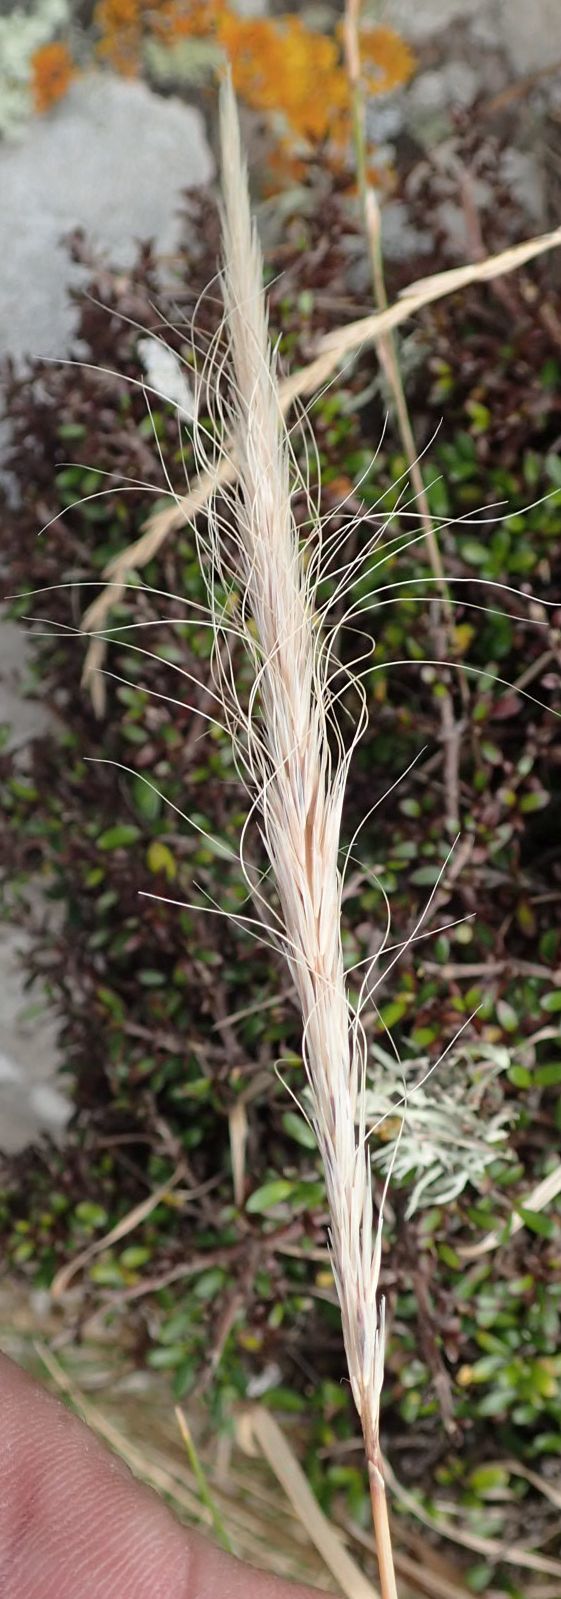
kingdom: Plantae
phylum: Tracheophyta
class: Liliopsida
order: Poales
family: Poaceae
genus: Dichelachne
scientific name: Dichelachne crinita
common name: Clovenfoot plumegrass
